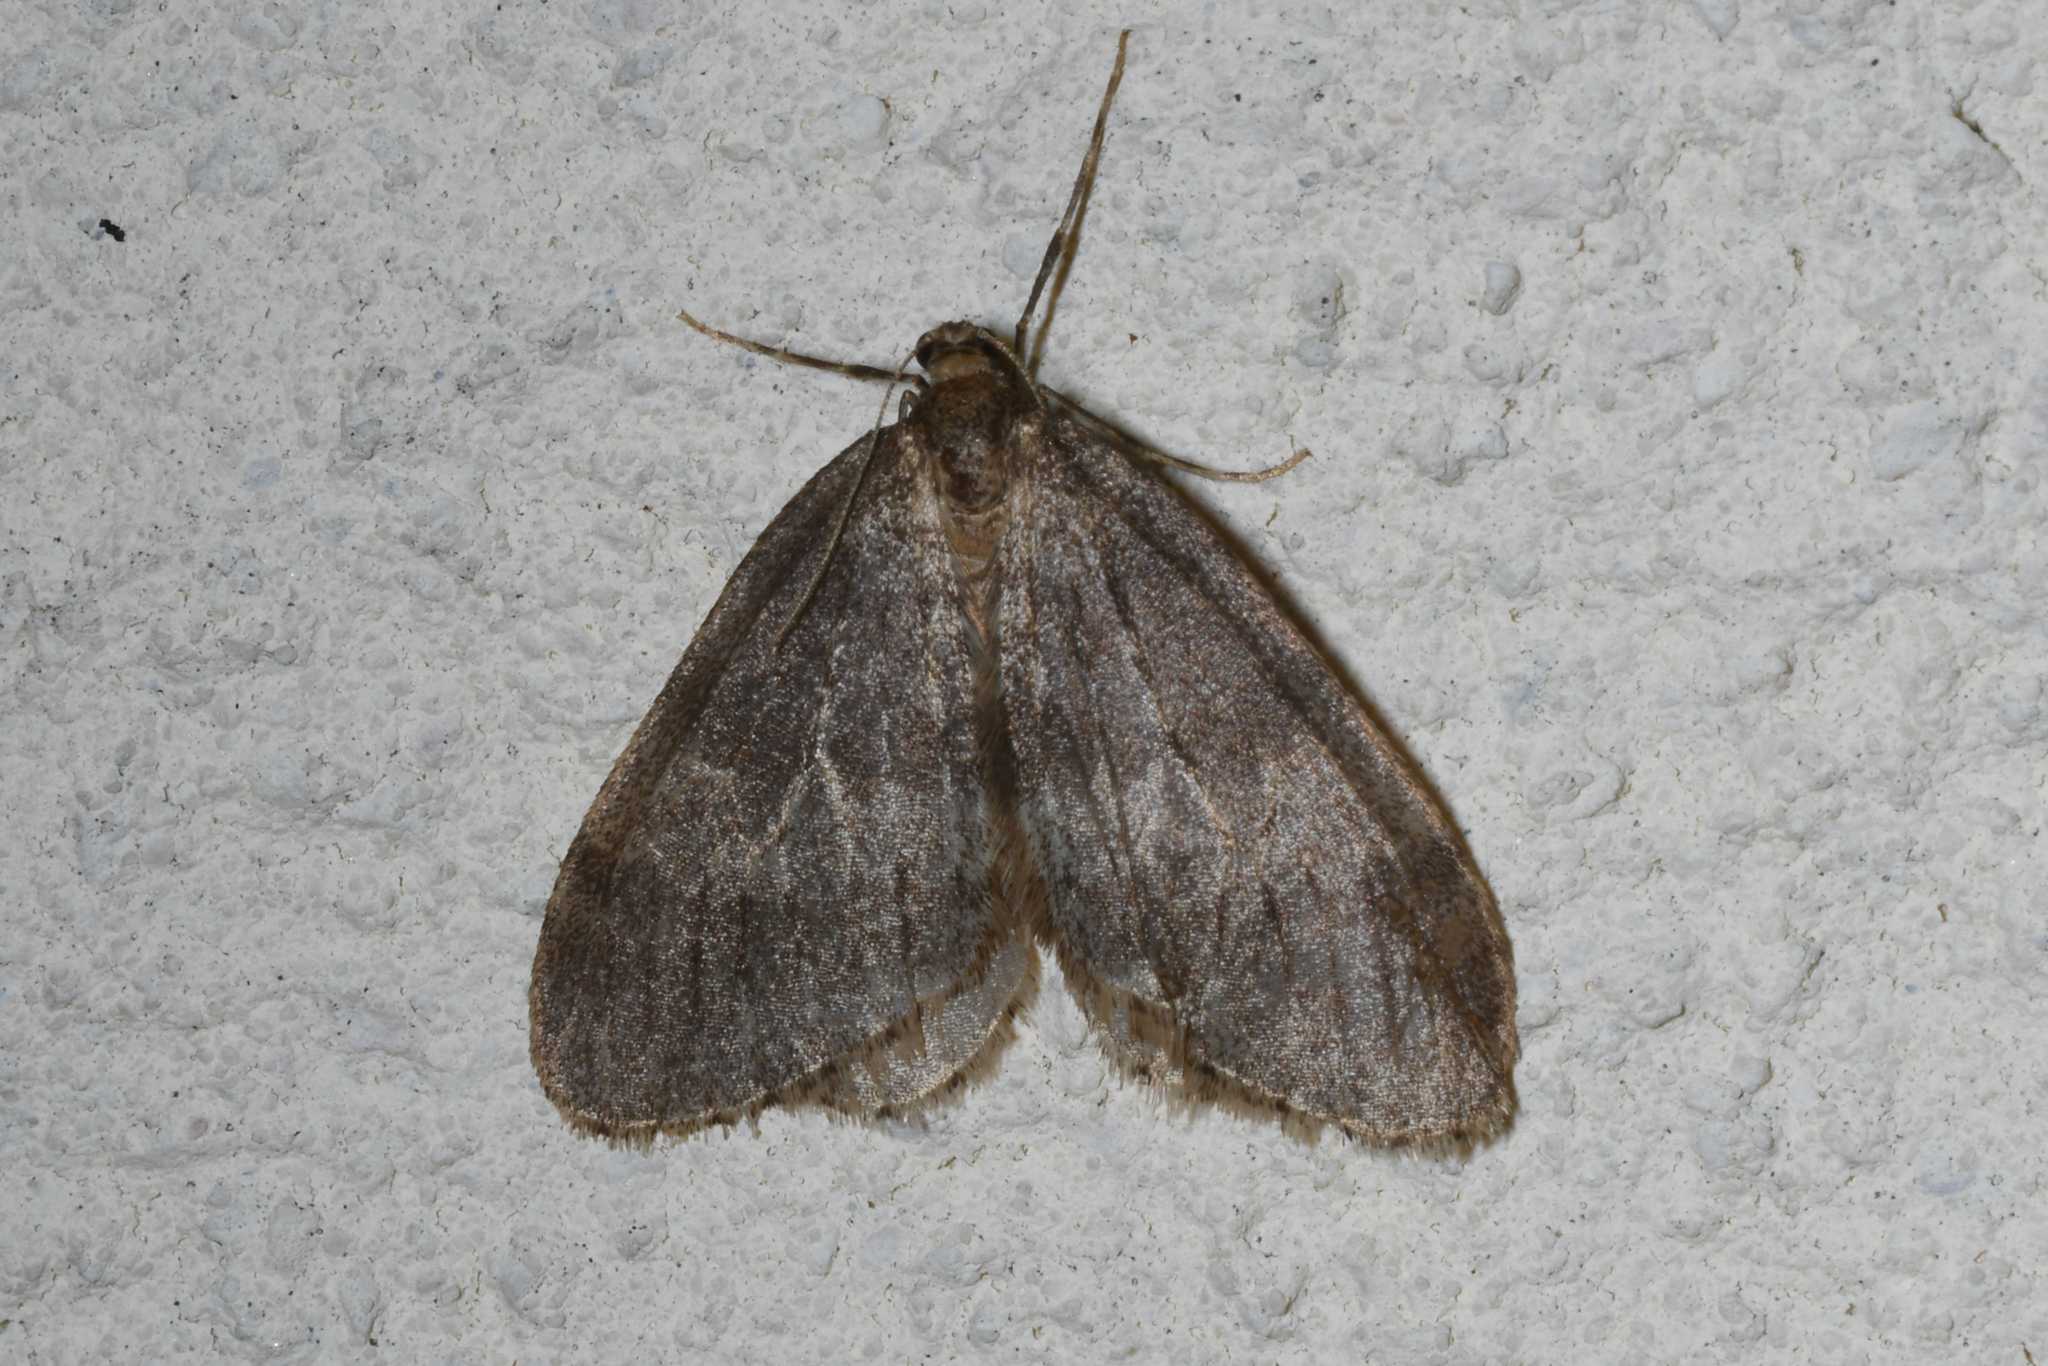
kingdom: Animalia
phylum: Arthropoda
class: Insecta
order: Lepidoptera
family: Geometridae
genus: Operophtera
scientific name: Operophtera brumata
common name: Winter moth
